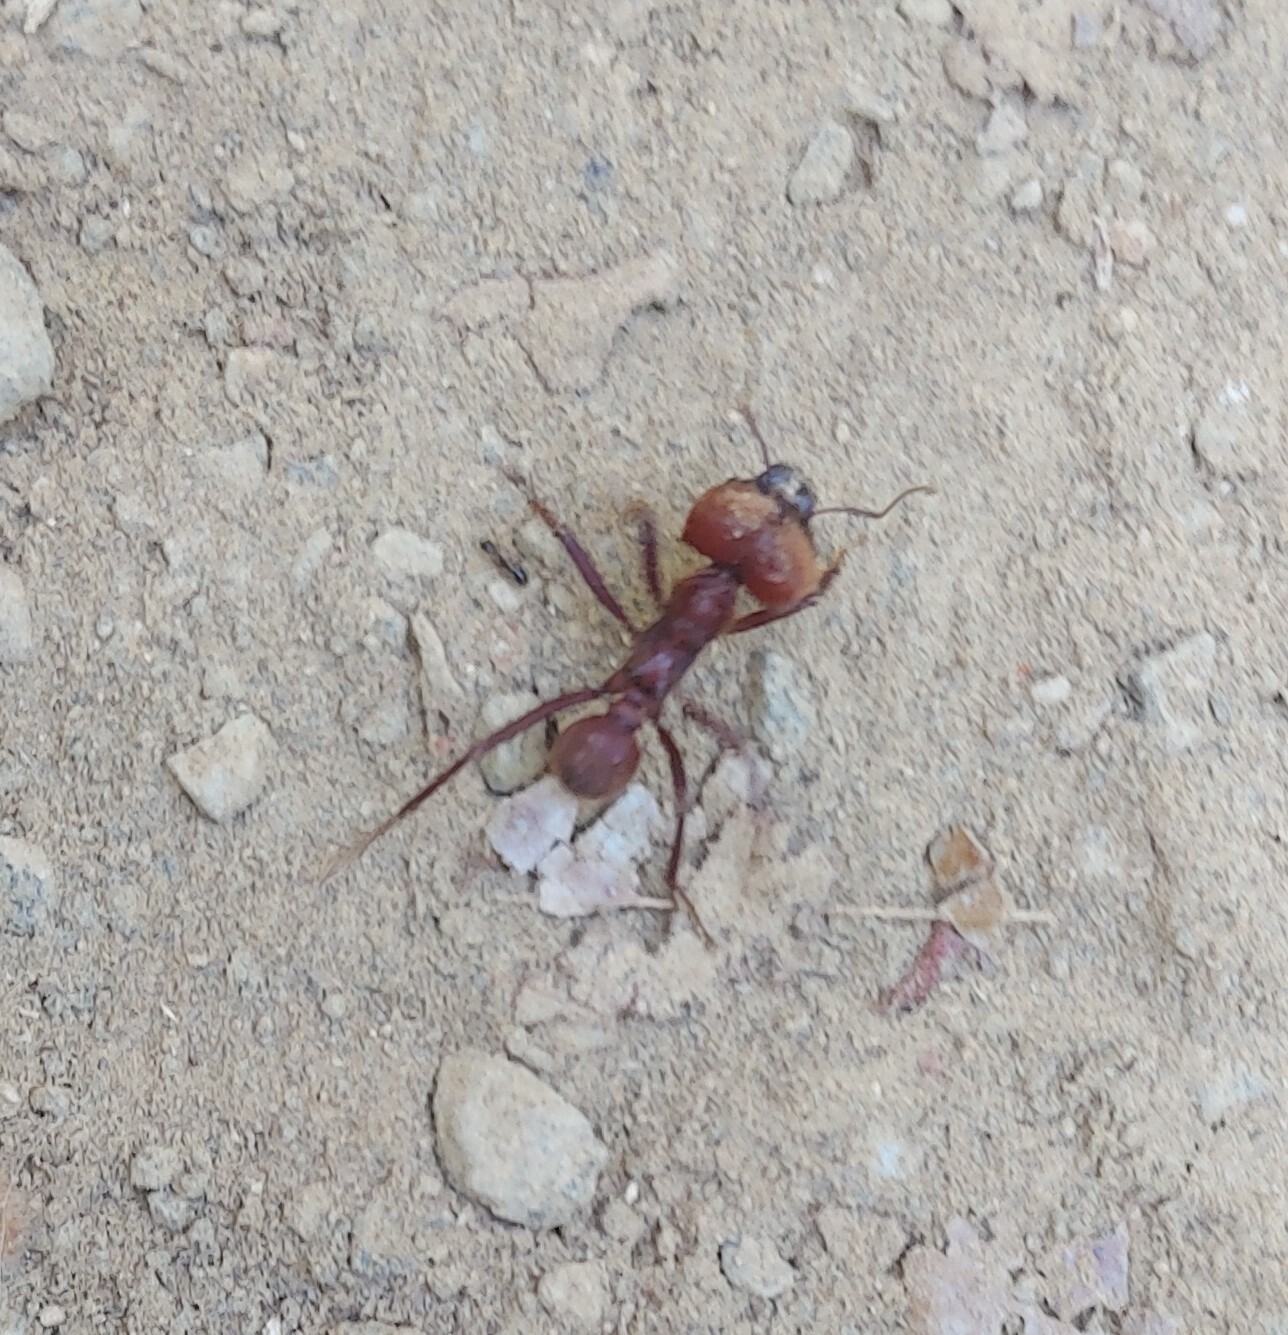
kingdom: Animalia
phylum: Arthropoda
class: Insecta
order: Hymenoptera
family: Formicidae
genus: Atta
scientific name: Atta cephalotes
